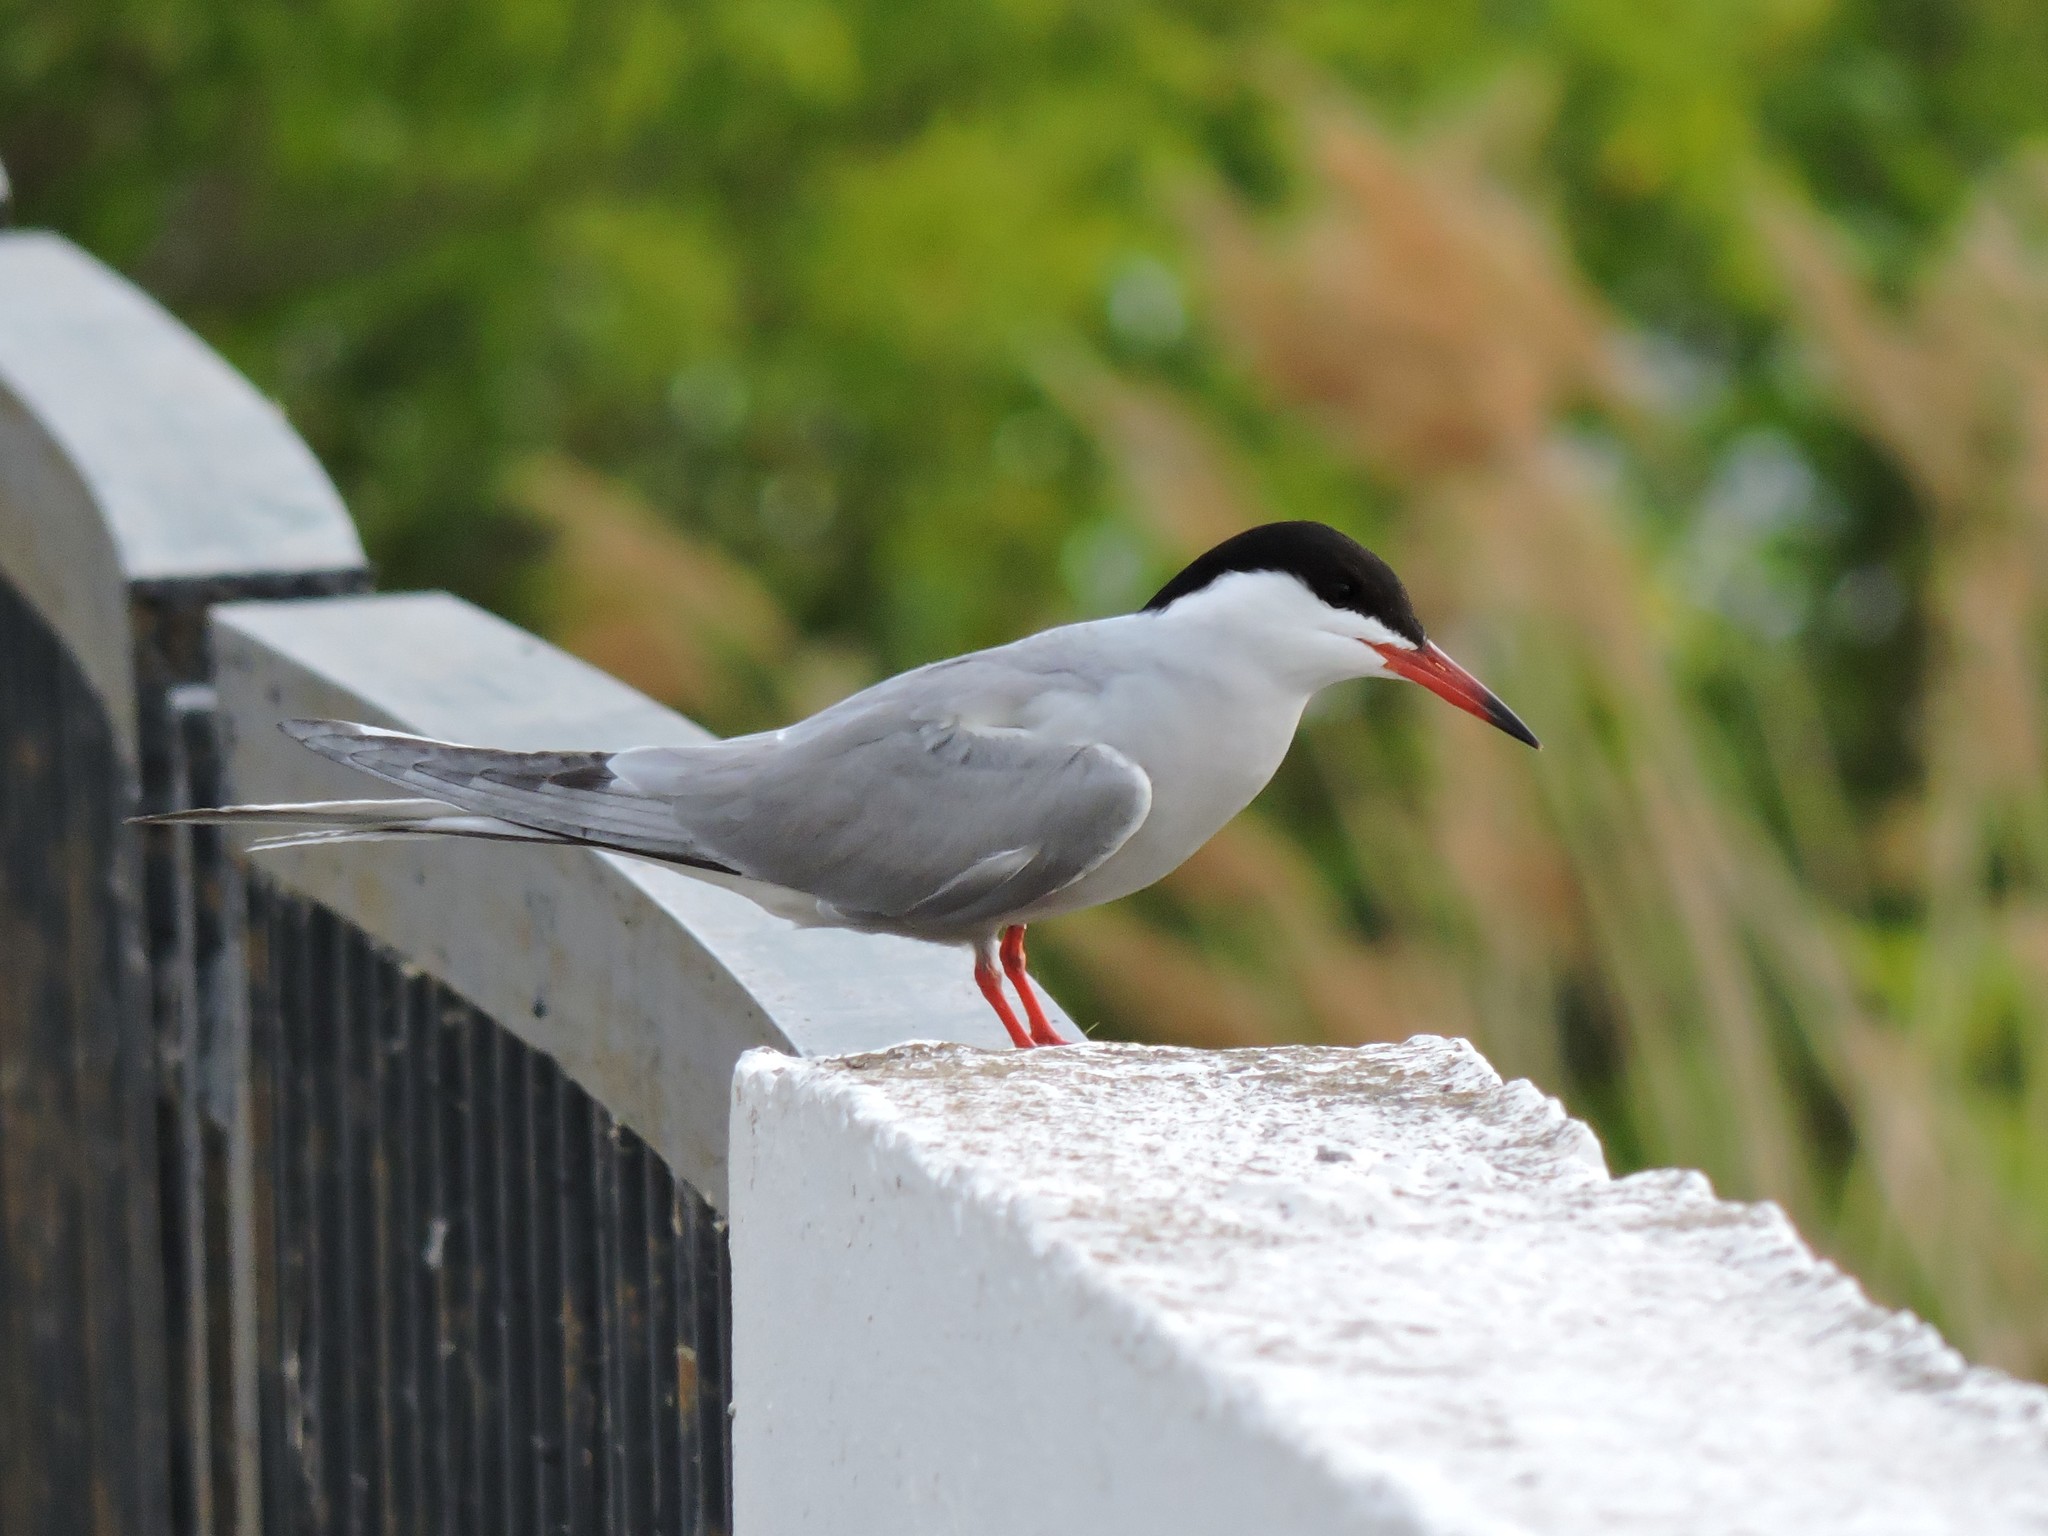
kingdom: Animalia
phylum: Chordata
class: Aves
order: Charadriiformes
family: Laridae
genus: Sterna
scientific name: Sterna hirundo
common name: Common tern
